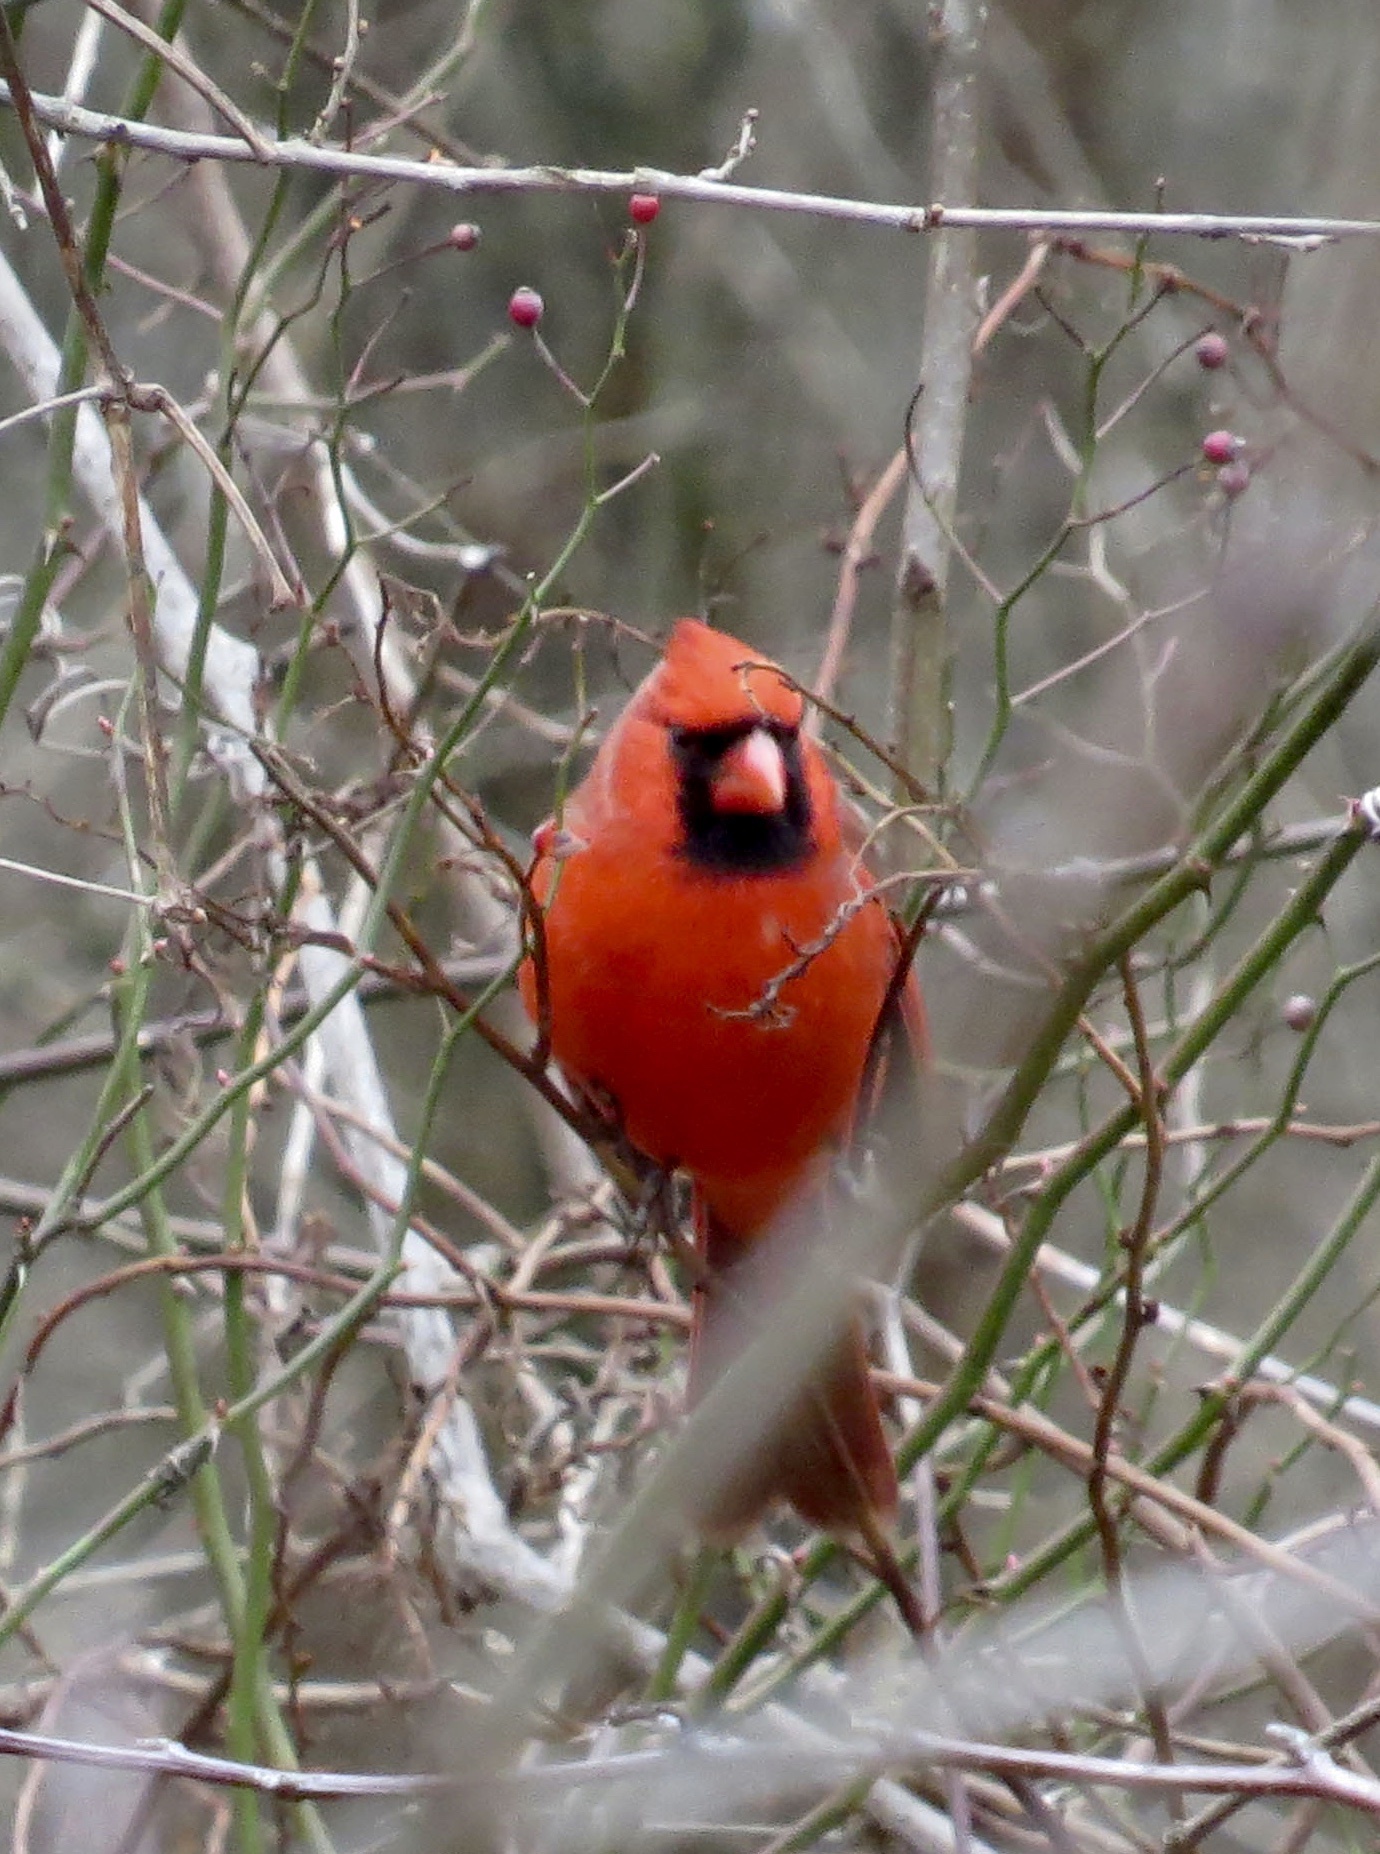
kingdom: Animalia
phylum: Chordata
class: Aves
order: Passeriformes
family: Cardinalidae
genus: Cardinalis
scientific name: Cardinalis cardinalis
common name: Northern cardinal
